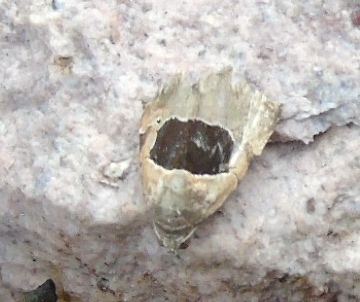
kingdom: Animalia
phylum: Arthropoda
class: Insecta
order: Lepidoptera
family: Noctuidae
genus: Tripudia
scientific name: Tripudia
